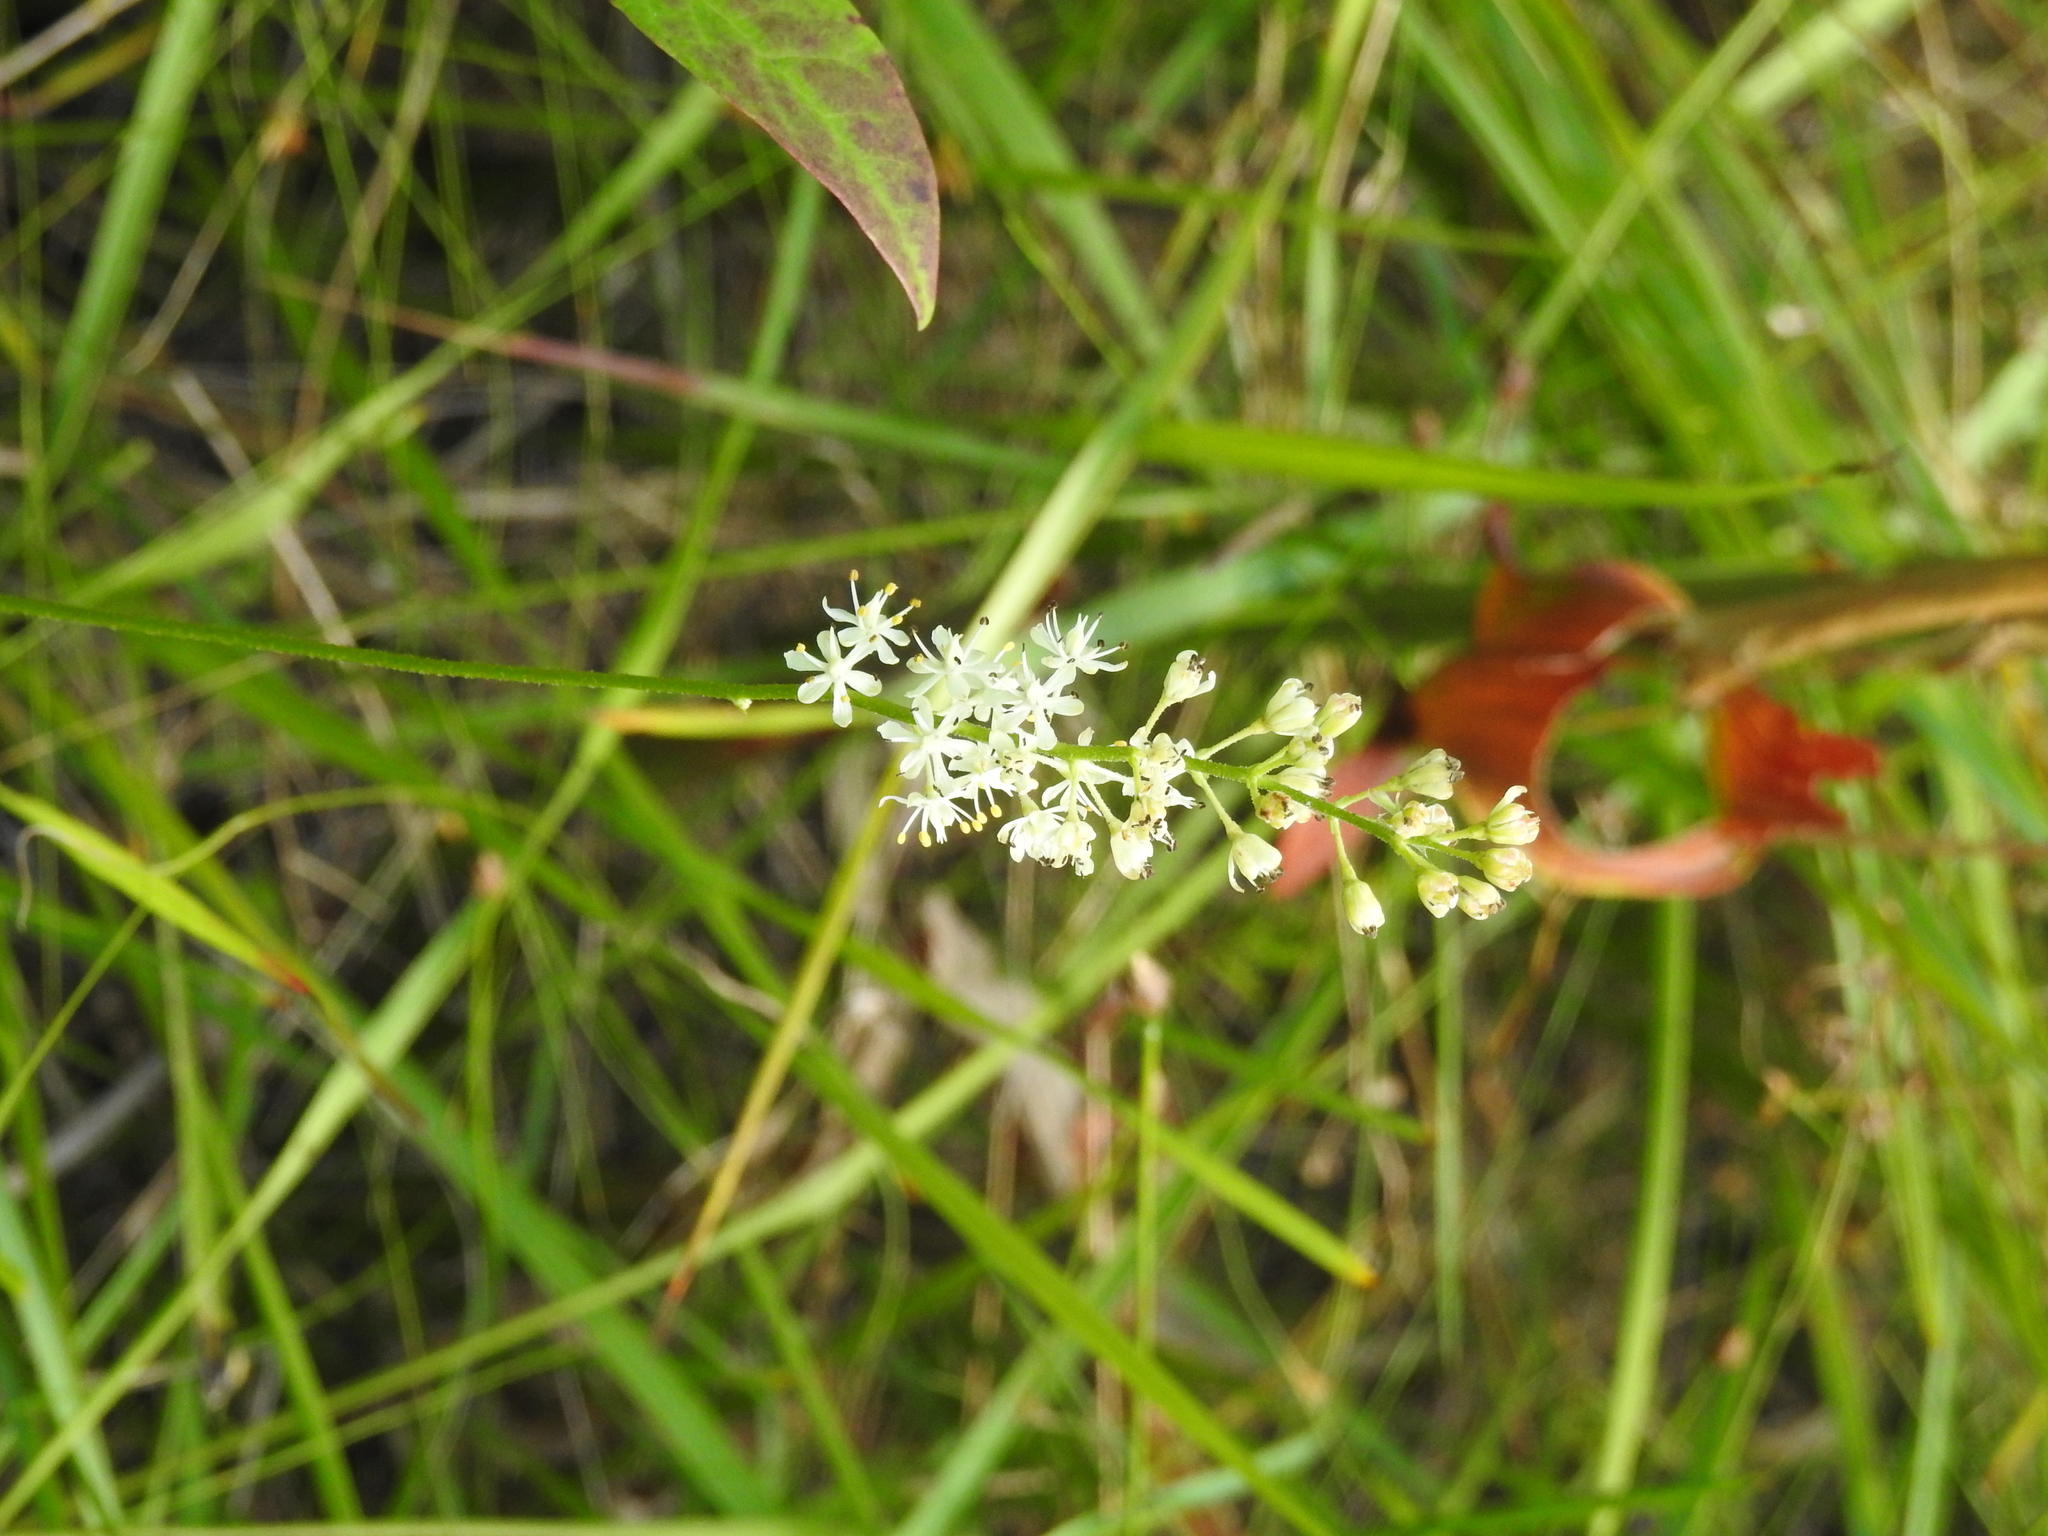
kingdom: Plantae
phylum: Tracheophyta
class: Liliopsida
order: Alismatales
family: Tofieldiaceae
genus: Triantha
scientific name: Triantha racemosa
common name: Coastal false asphodel
